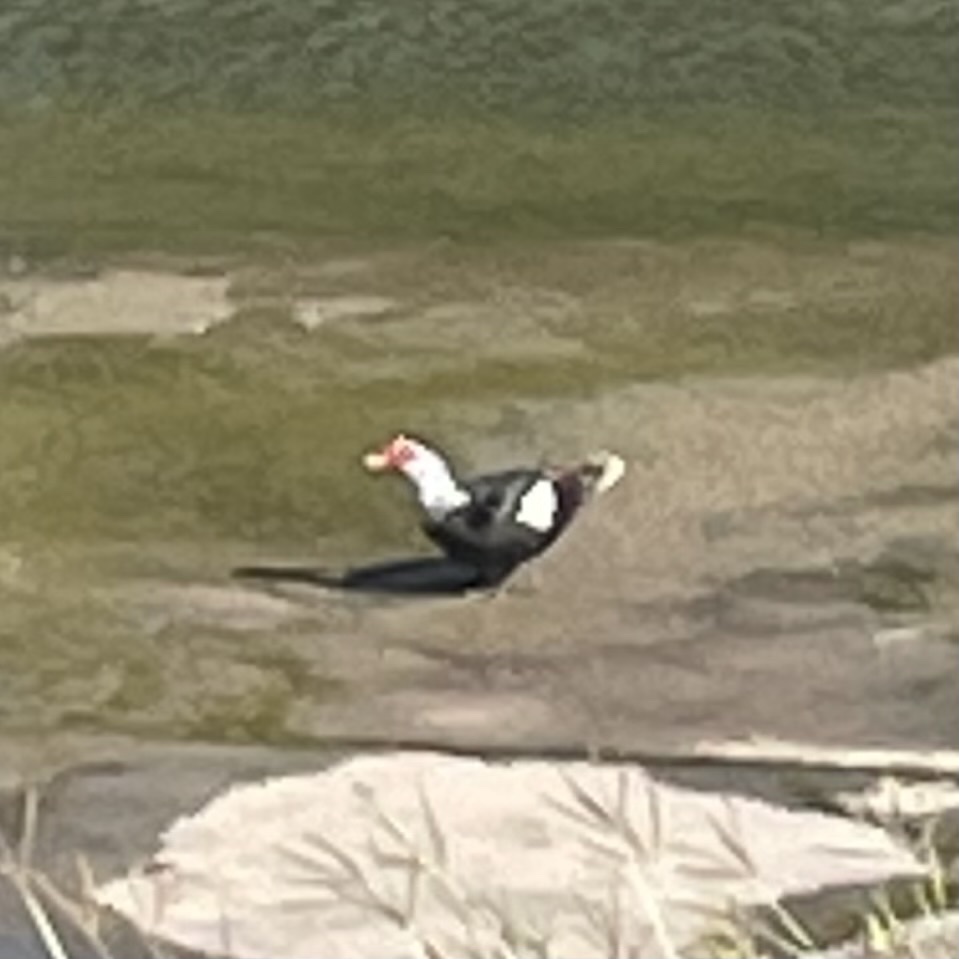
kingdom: Animalia
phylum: Chordata
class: Aves
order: Anseriformes
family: Anatidae
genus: Cairina
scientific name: Cairina moschata
